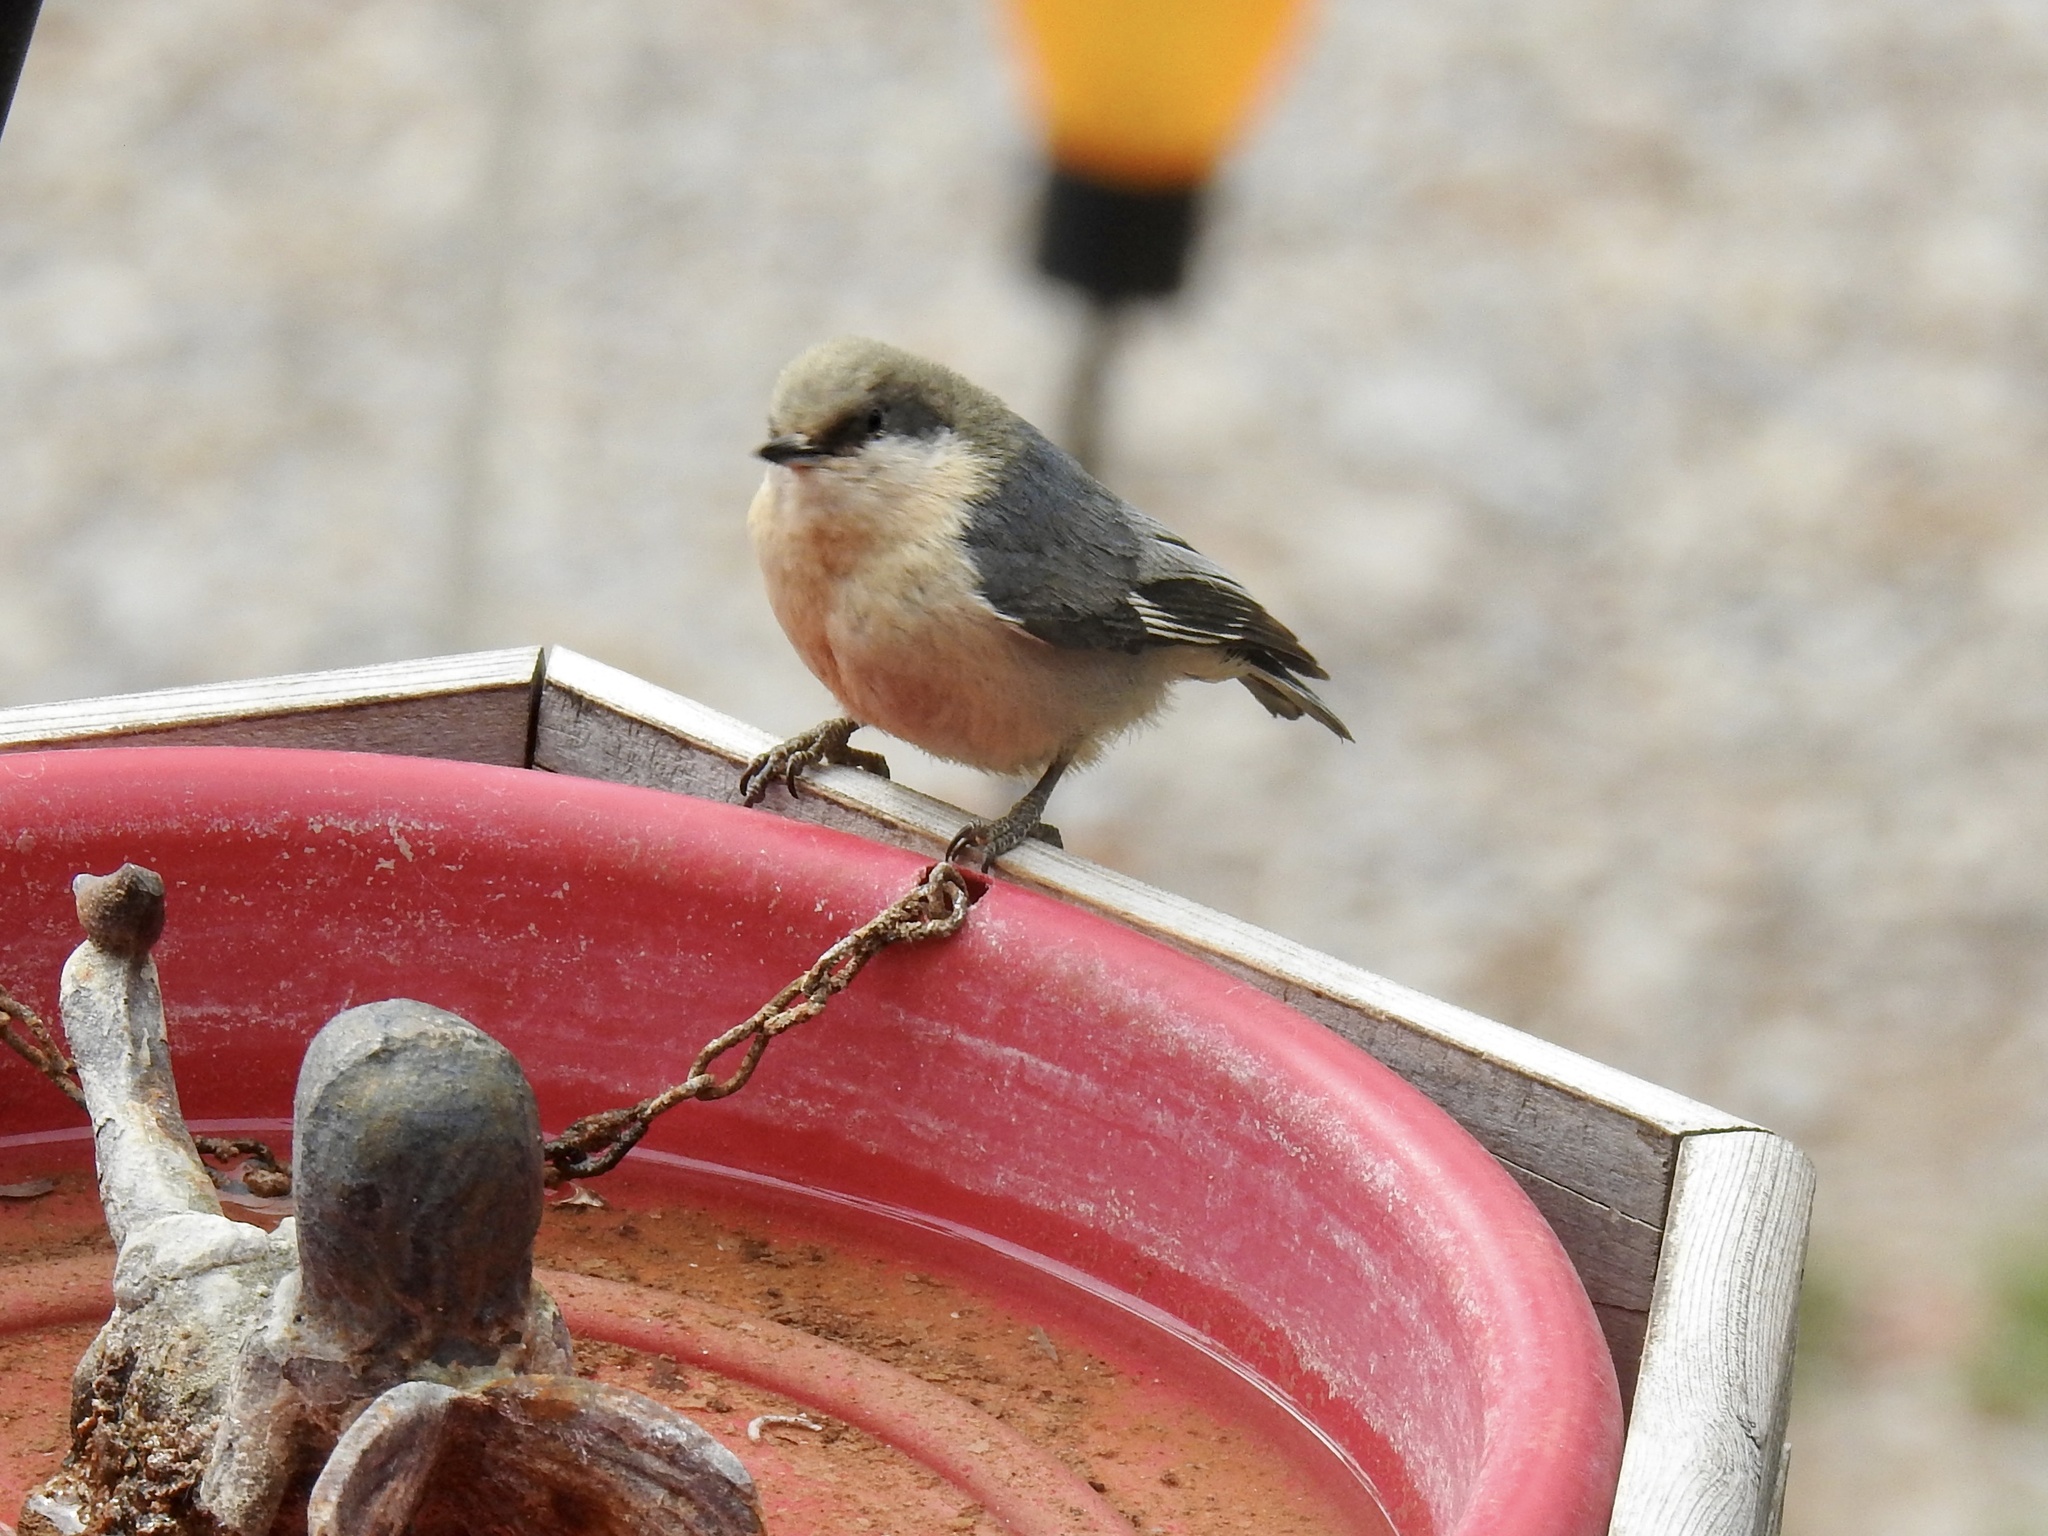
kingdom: Animalia
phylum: Chordata
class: Aves
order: Passeriformes
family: Sittidae
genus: Sitta
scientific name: Sitta pygmaea
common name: Pygmy nuthatch
